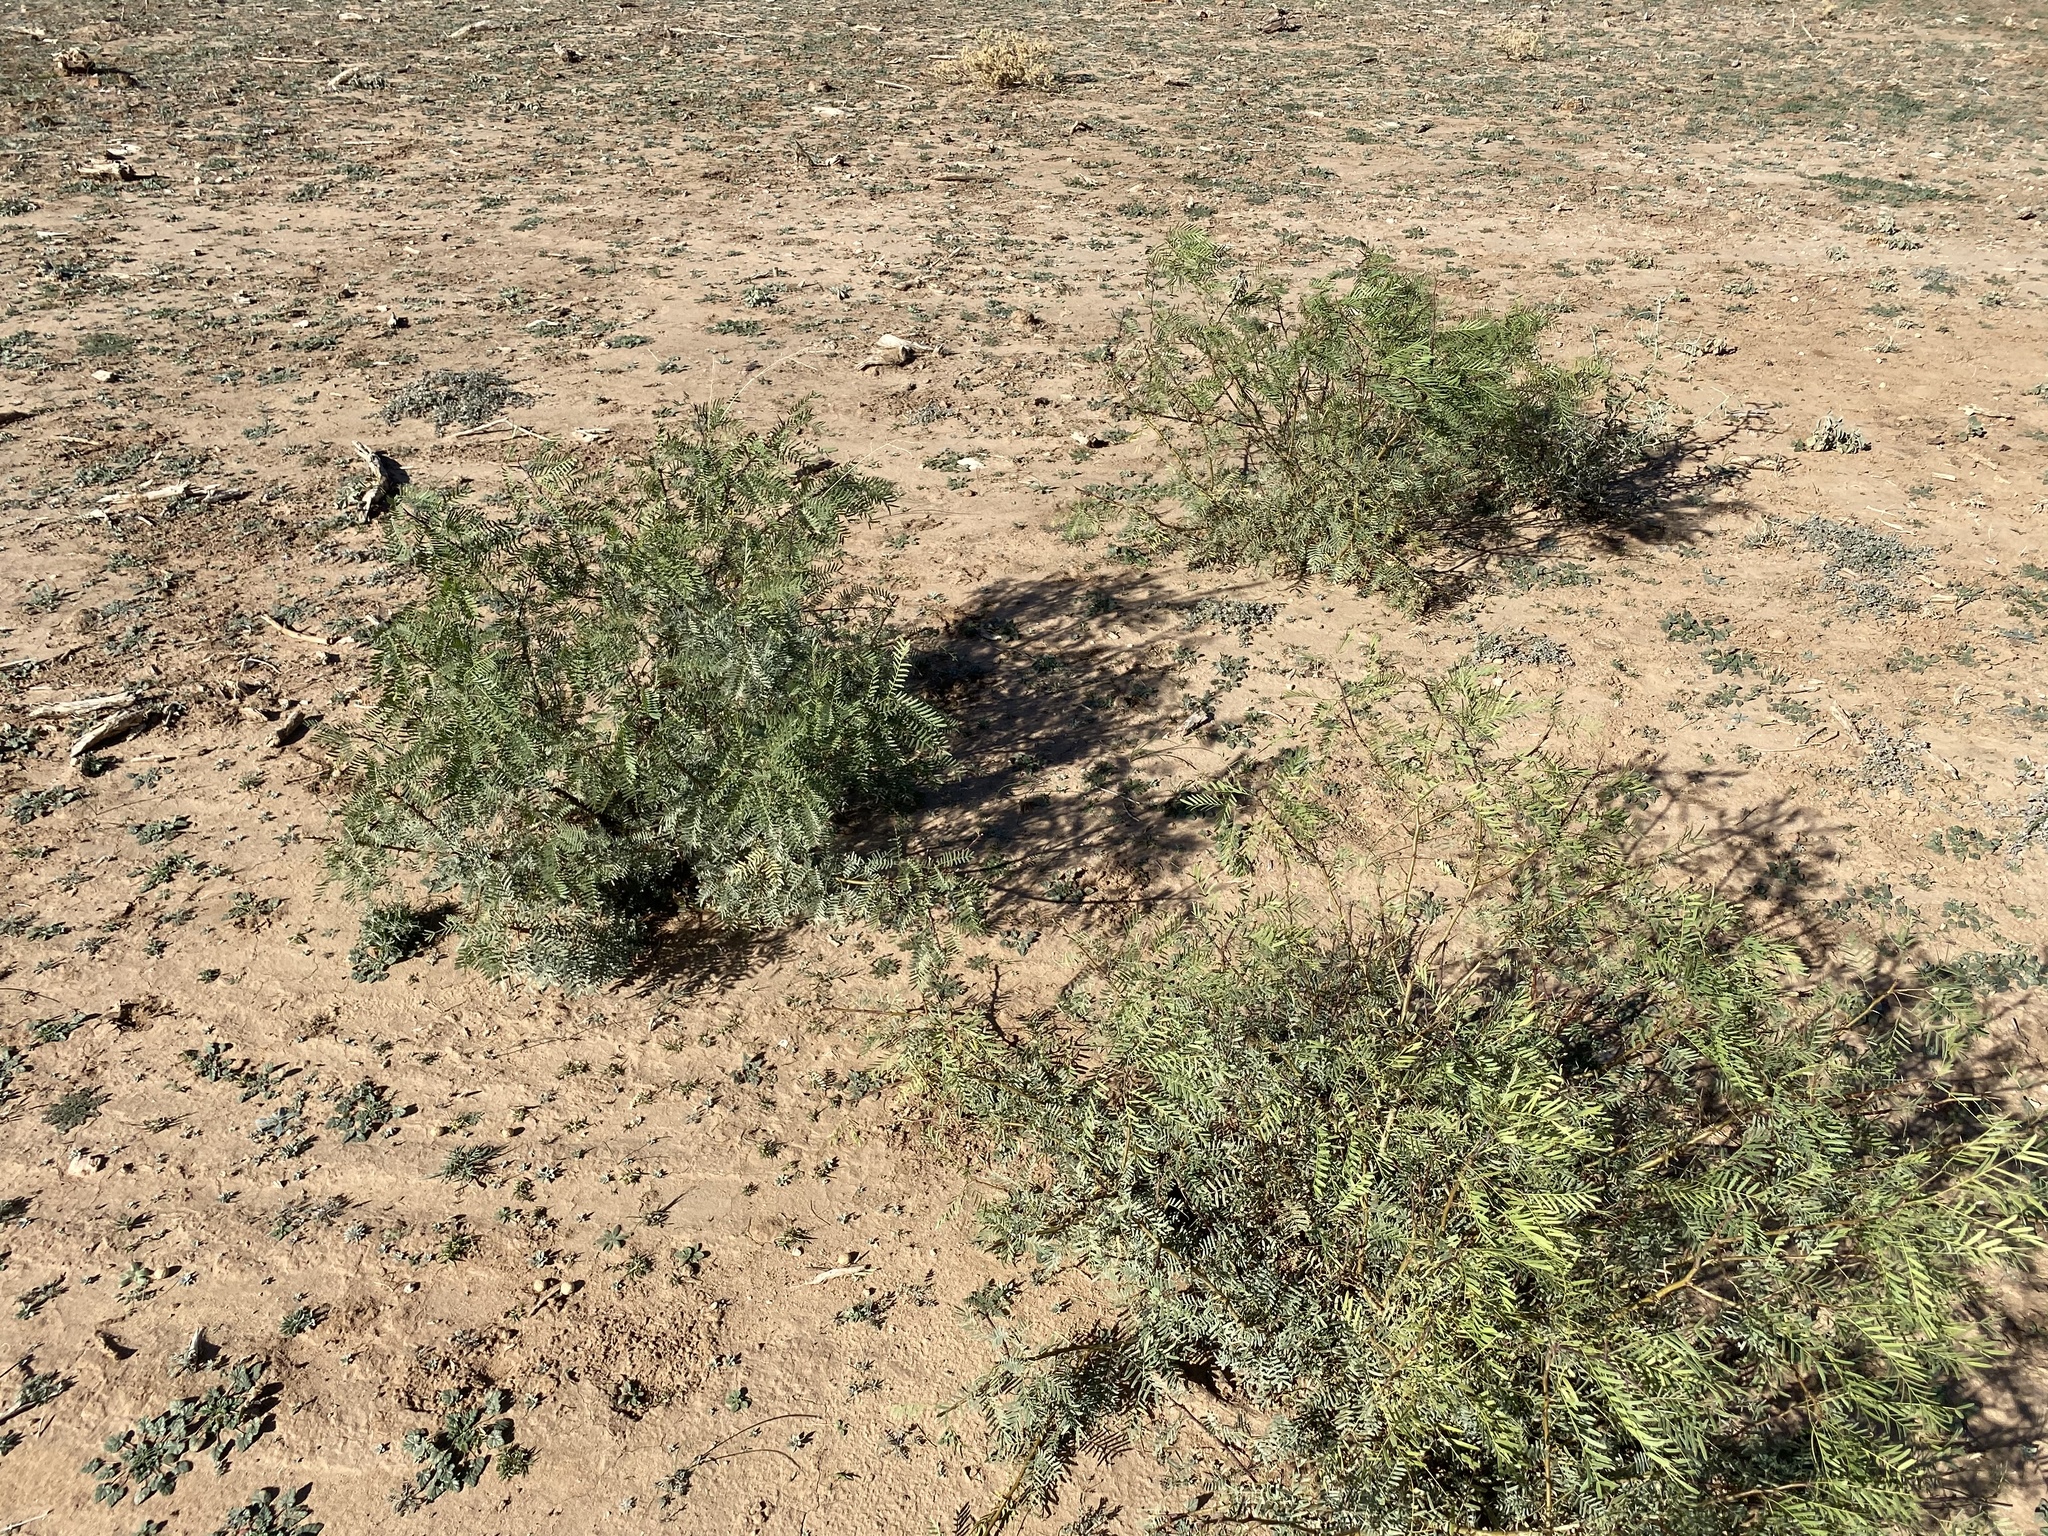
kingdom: Plantae
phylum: Tracheophyta
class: Magnoliopsida
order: Fabales
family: Fabaceae
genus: Prosopis
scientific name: Prosopis glandulosa
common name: Honey mesquite
